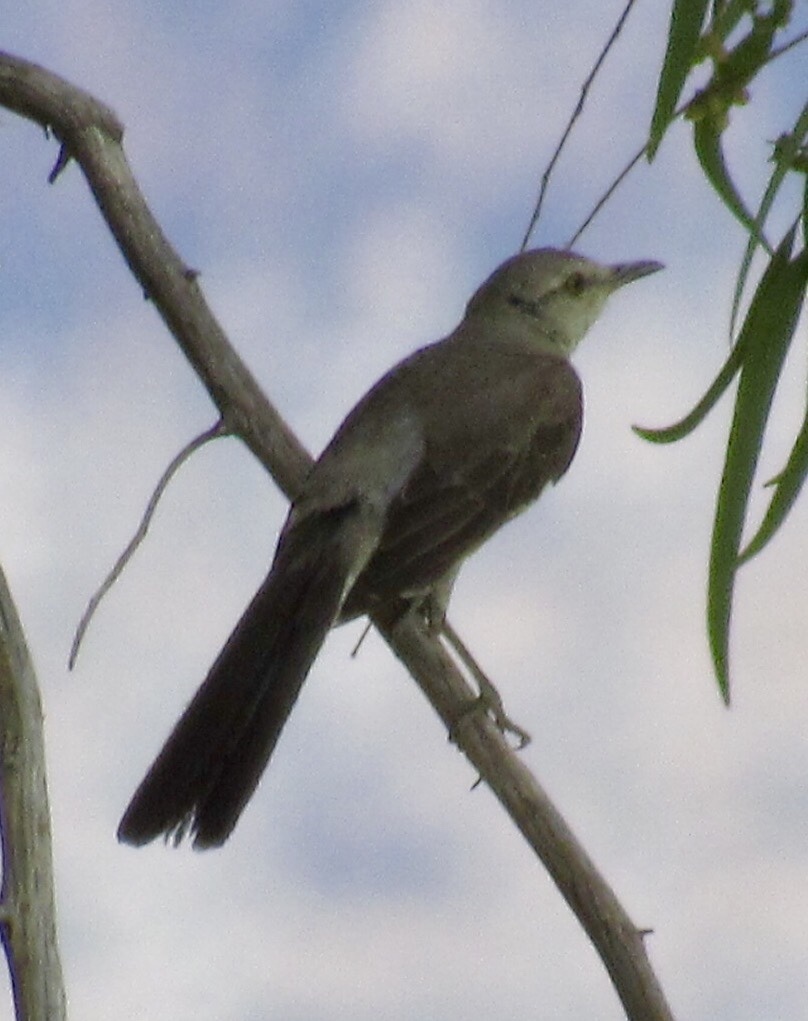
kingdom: Animalia
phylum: Chordata
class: Aves
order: Passeriformes
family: Mimidae
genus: Mimus
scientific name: Mimus polyglottos
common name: Northern mockingbird
